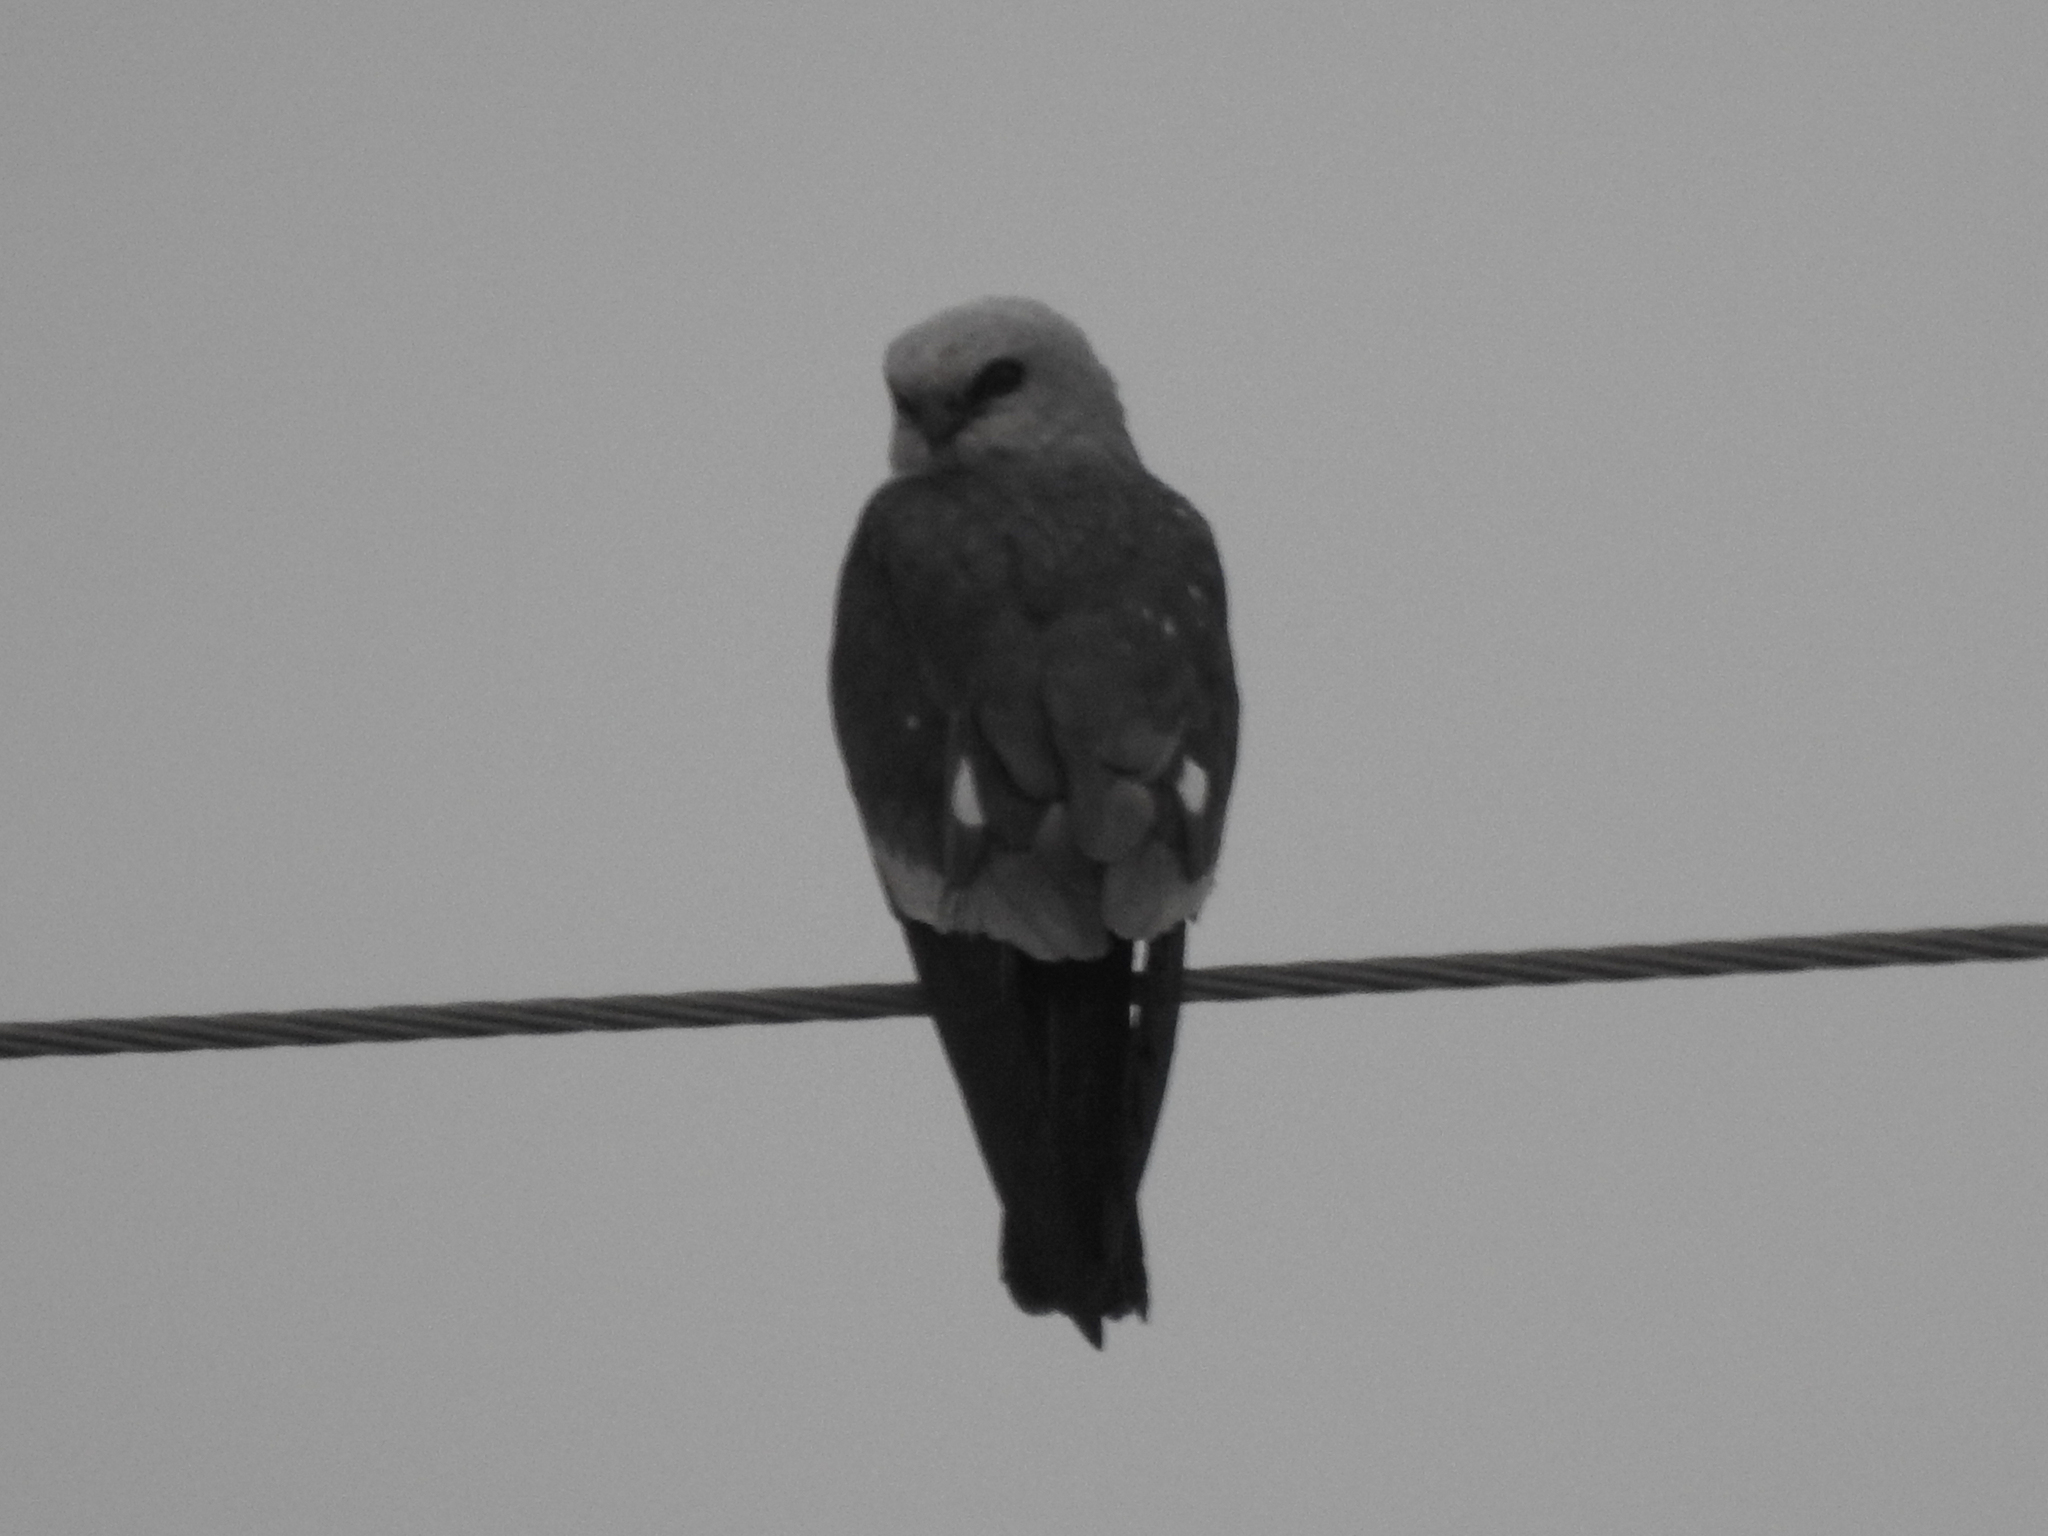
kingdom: Animalia
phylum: Chordata
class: Aves
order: Accipitriformes
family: Accipitridae
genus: Ictinia
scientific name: Ictinia mississippiensis
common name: Mississippi kite
